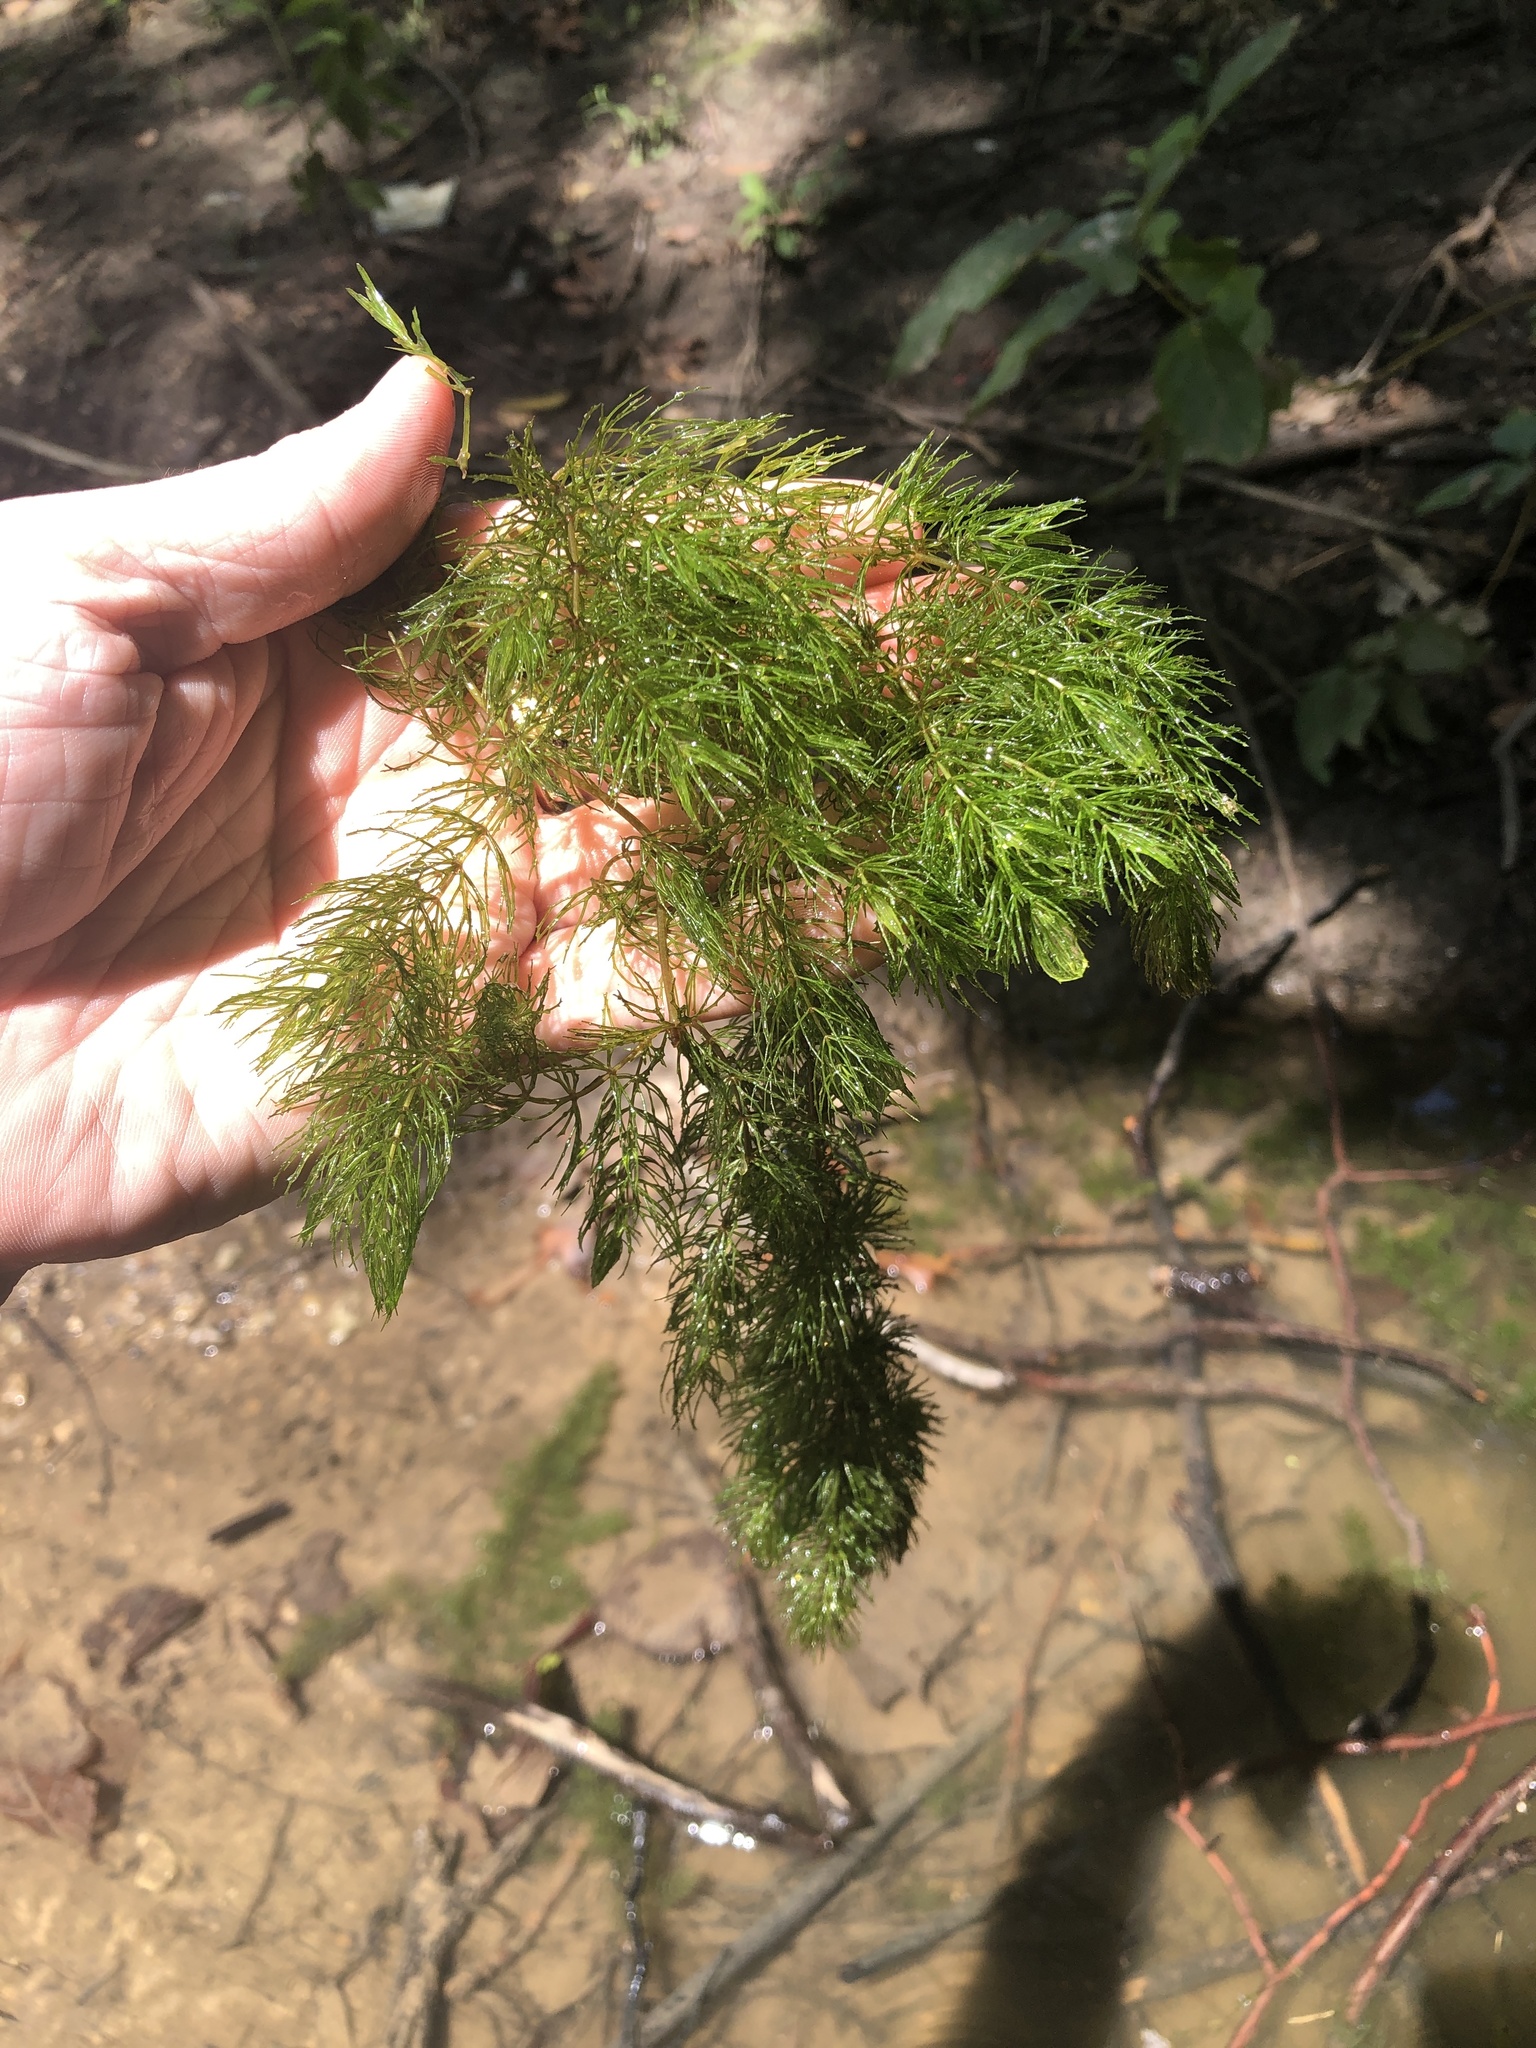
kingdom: Plantae
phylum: Tracheophyta
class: Magnoliopsida
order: Ceratophyllales
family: Ceratophyllaceae
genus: Ceratophyllum
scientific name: Ceratophyllum demersum
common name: Rigid hornwort
